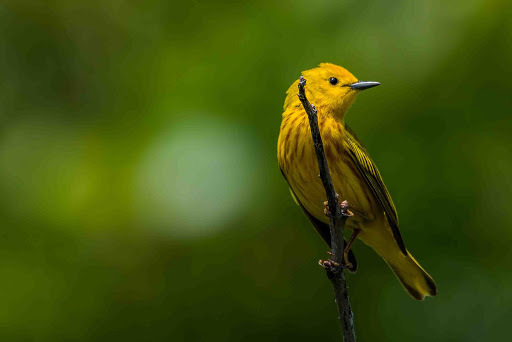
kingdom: Animalia
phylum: Chordata
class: Aves
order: Passeriformes
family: Parulidae
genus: Setophaga
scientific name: Setophaga petechia
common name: Yellow warbler
